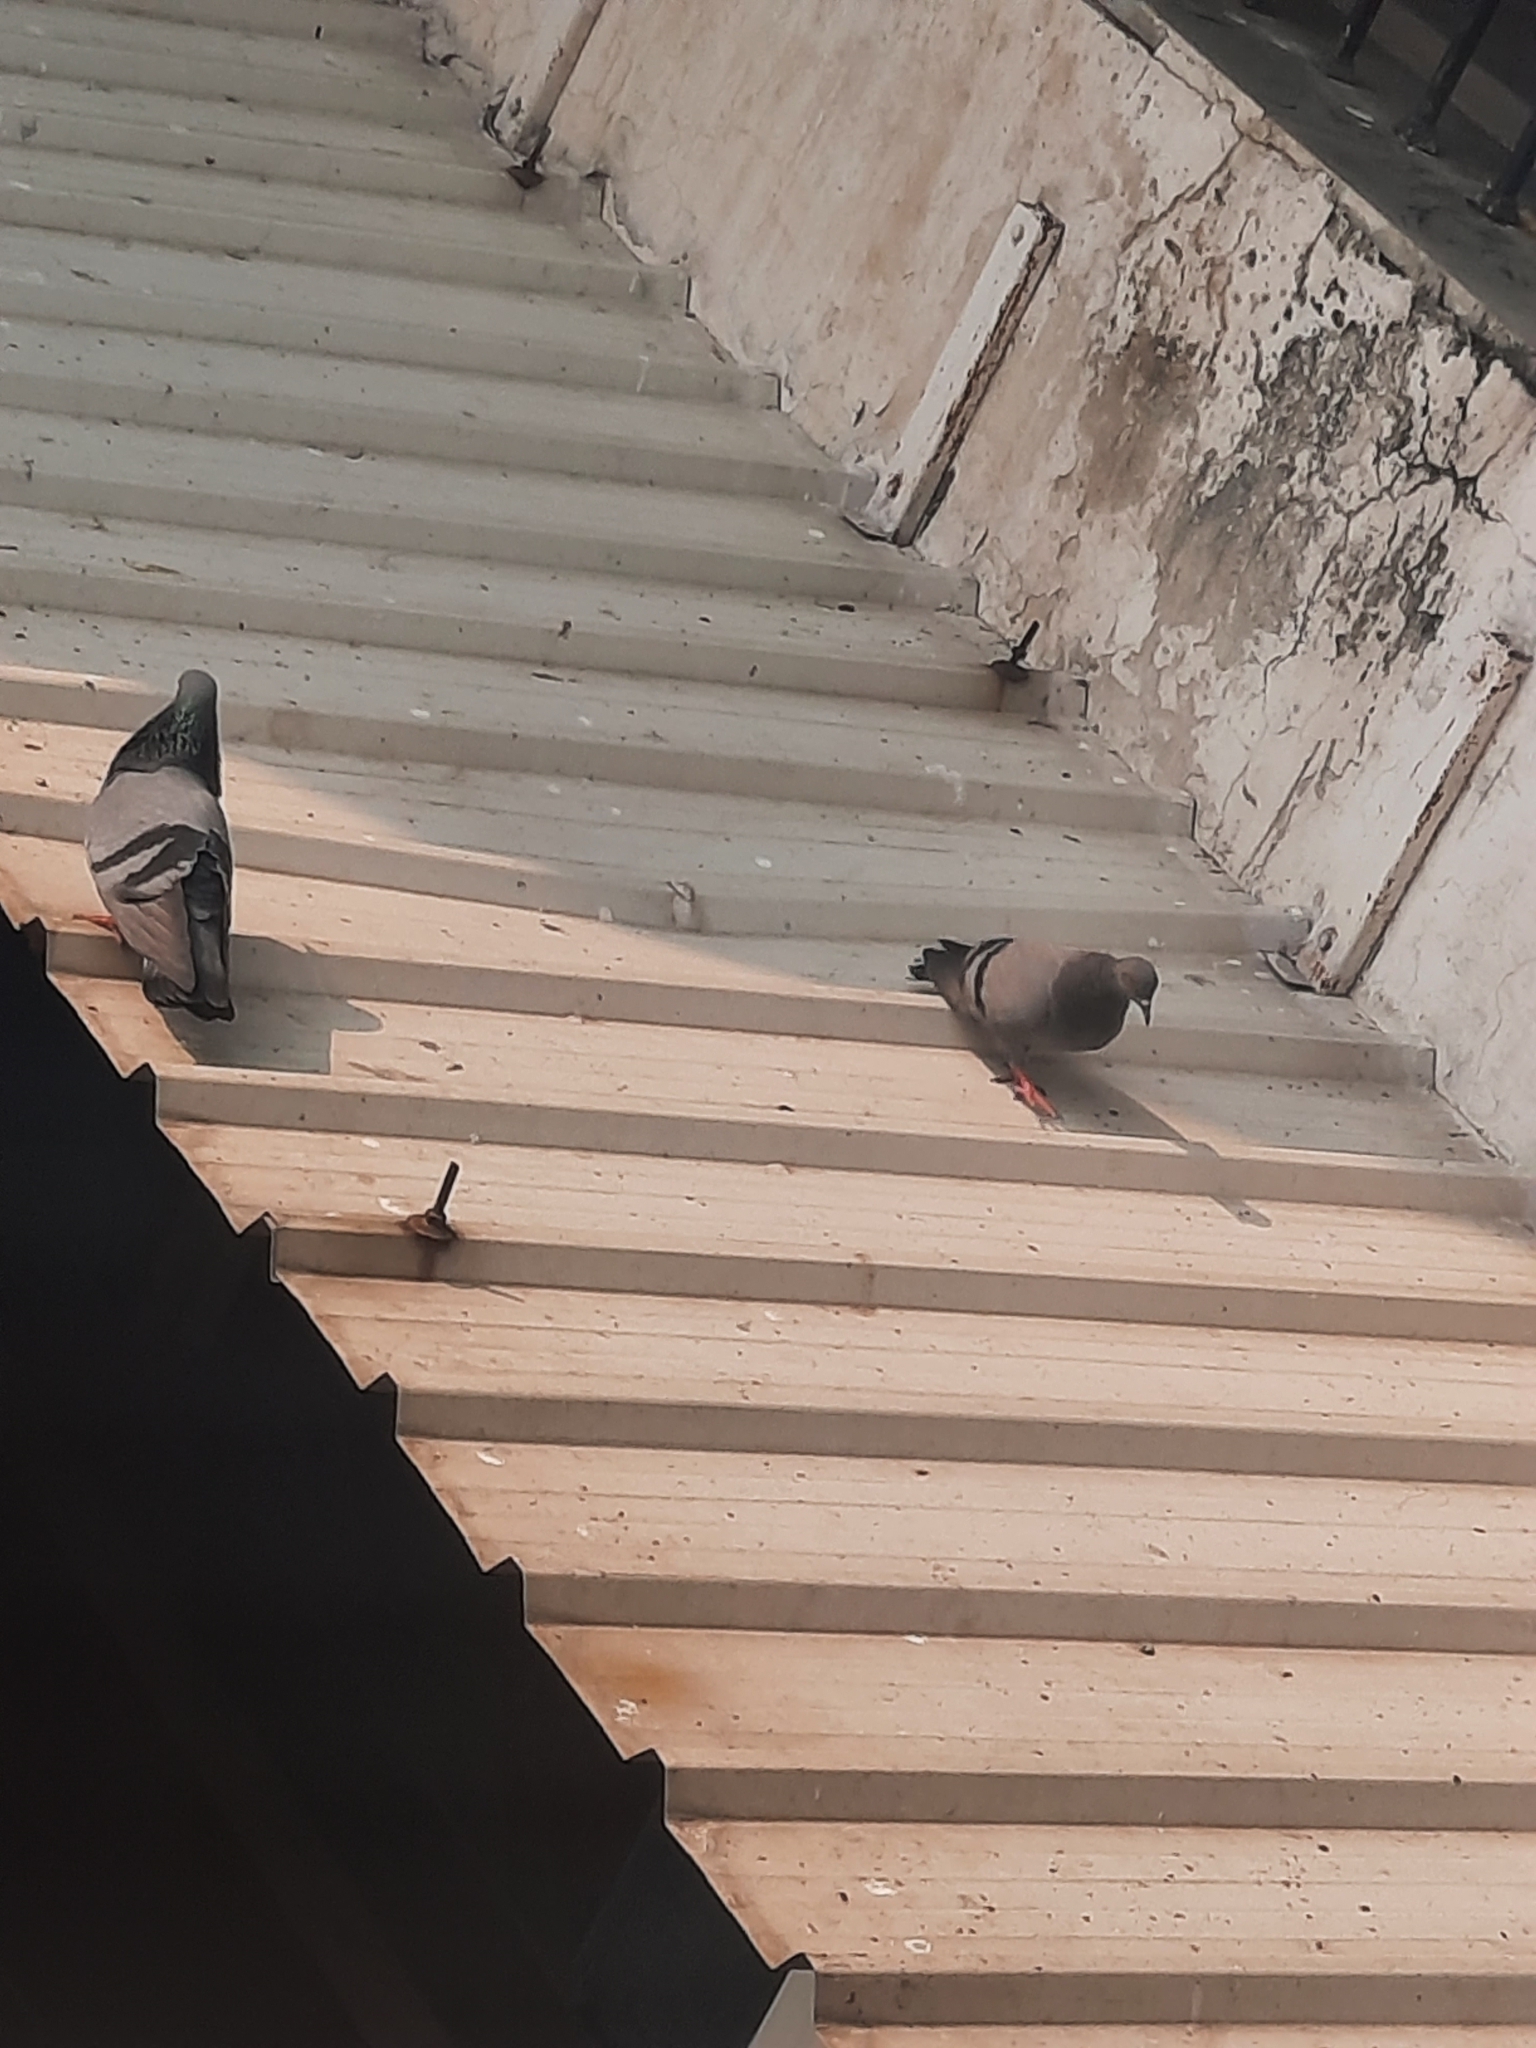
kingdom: Animalia
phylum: Chordata
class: Aves
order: Columbiformes
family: Columbidae
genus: Columba
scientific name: Columba livia
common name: Rock pigeon
